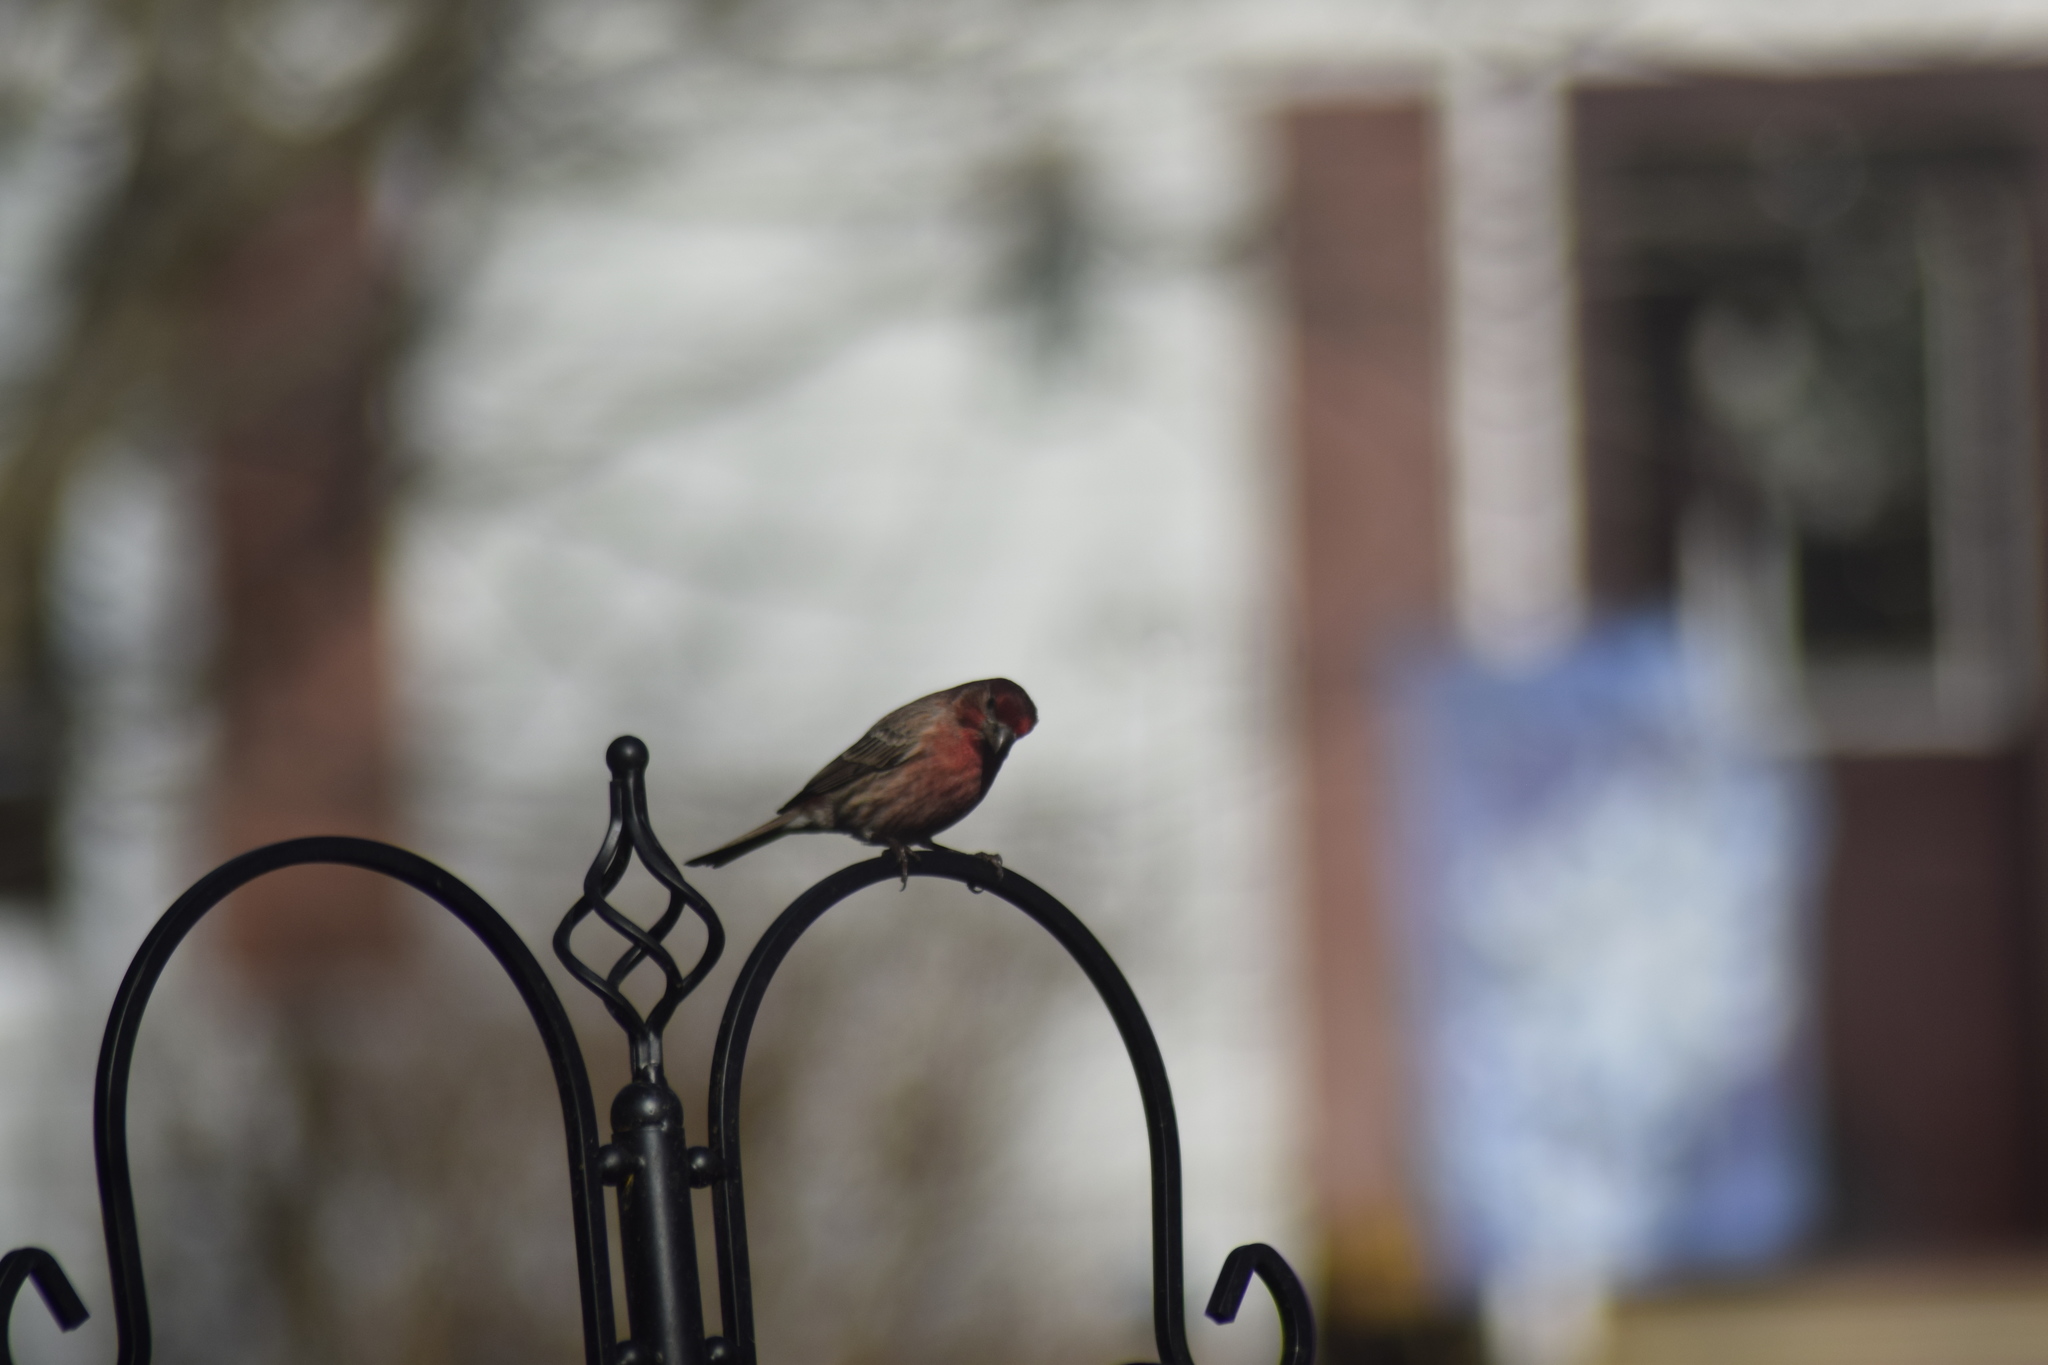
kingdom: Animalia
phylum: Chordata
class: Aves
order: Passeriformes
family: Fringillidae
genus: Haemorhous
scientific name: Haemorhous mexicanus
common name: House finch
